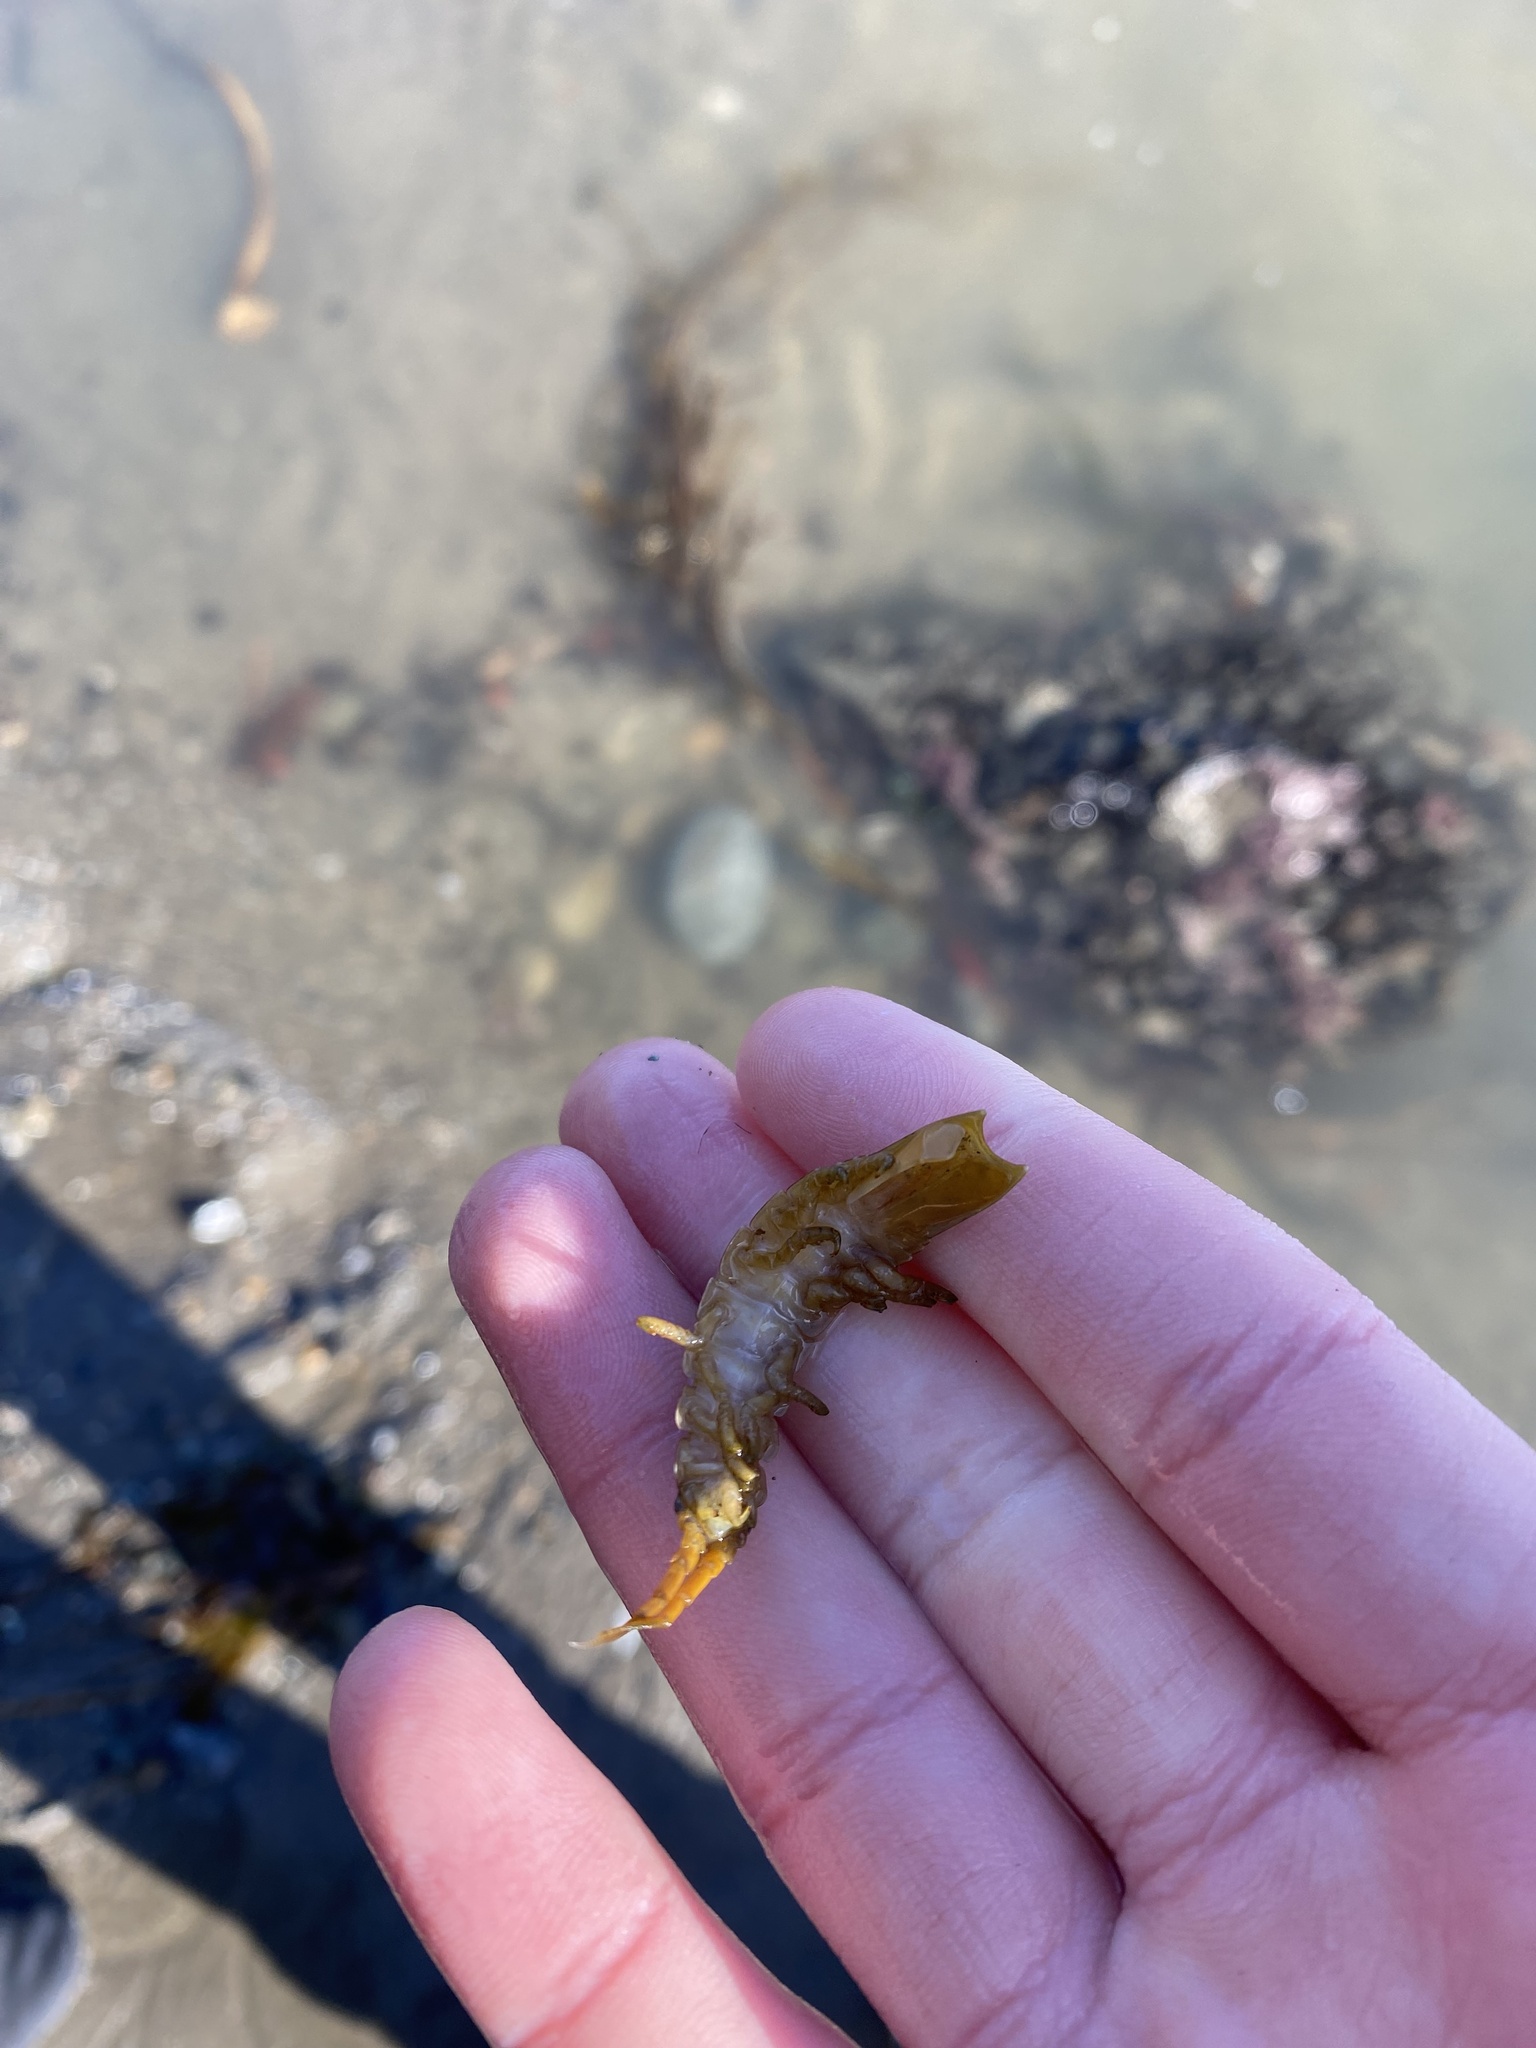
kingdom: Animalia
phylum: Arthropoda
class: Malacostraca
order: Isopoda
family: Idoteidae
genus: Pentidotea
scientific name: Pentidotea resecata
